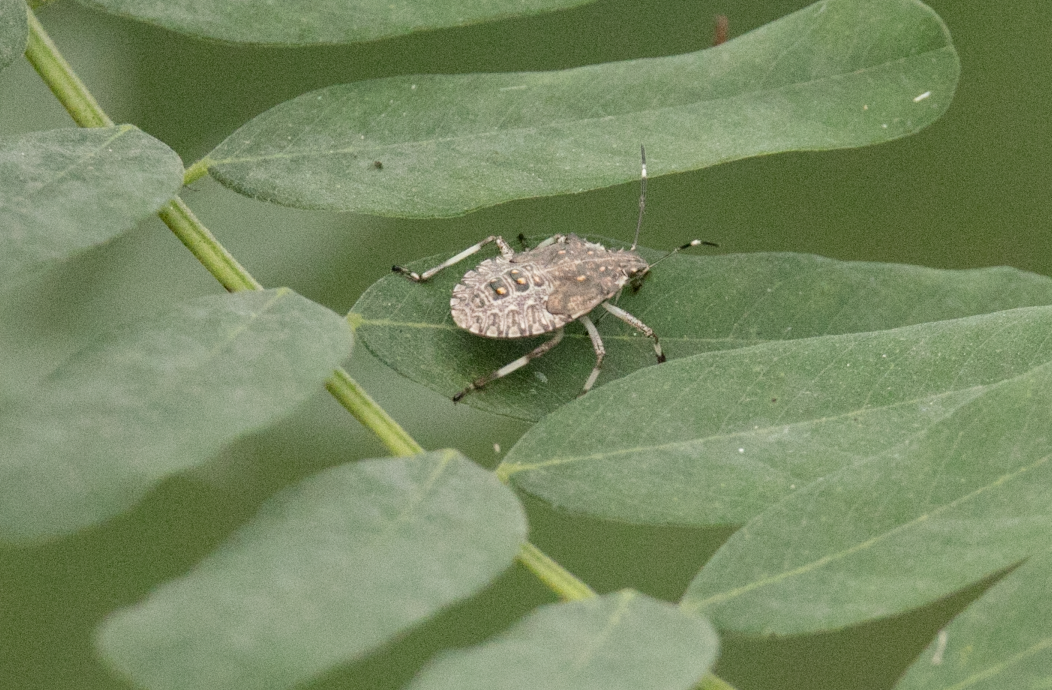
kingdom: Animalia
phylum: Arthropoda
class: Insecta
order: Hemiptera
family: Pentatomidae
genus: Halyomorpha
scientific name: Halyomorpha halys
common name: Brown marmorated stink bug
